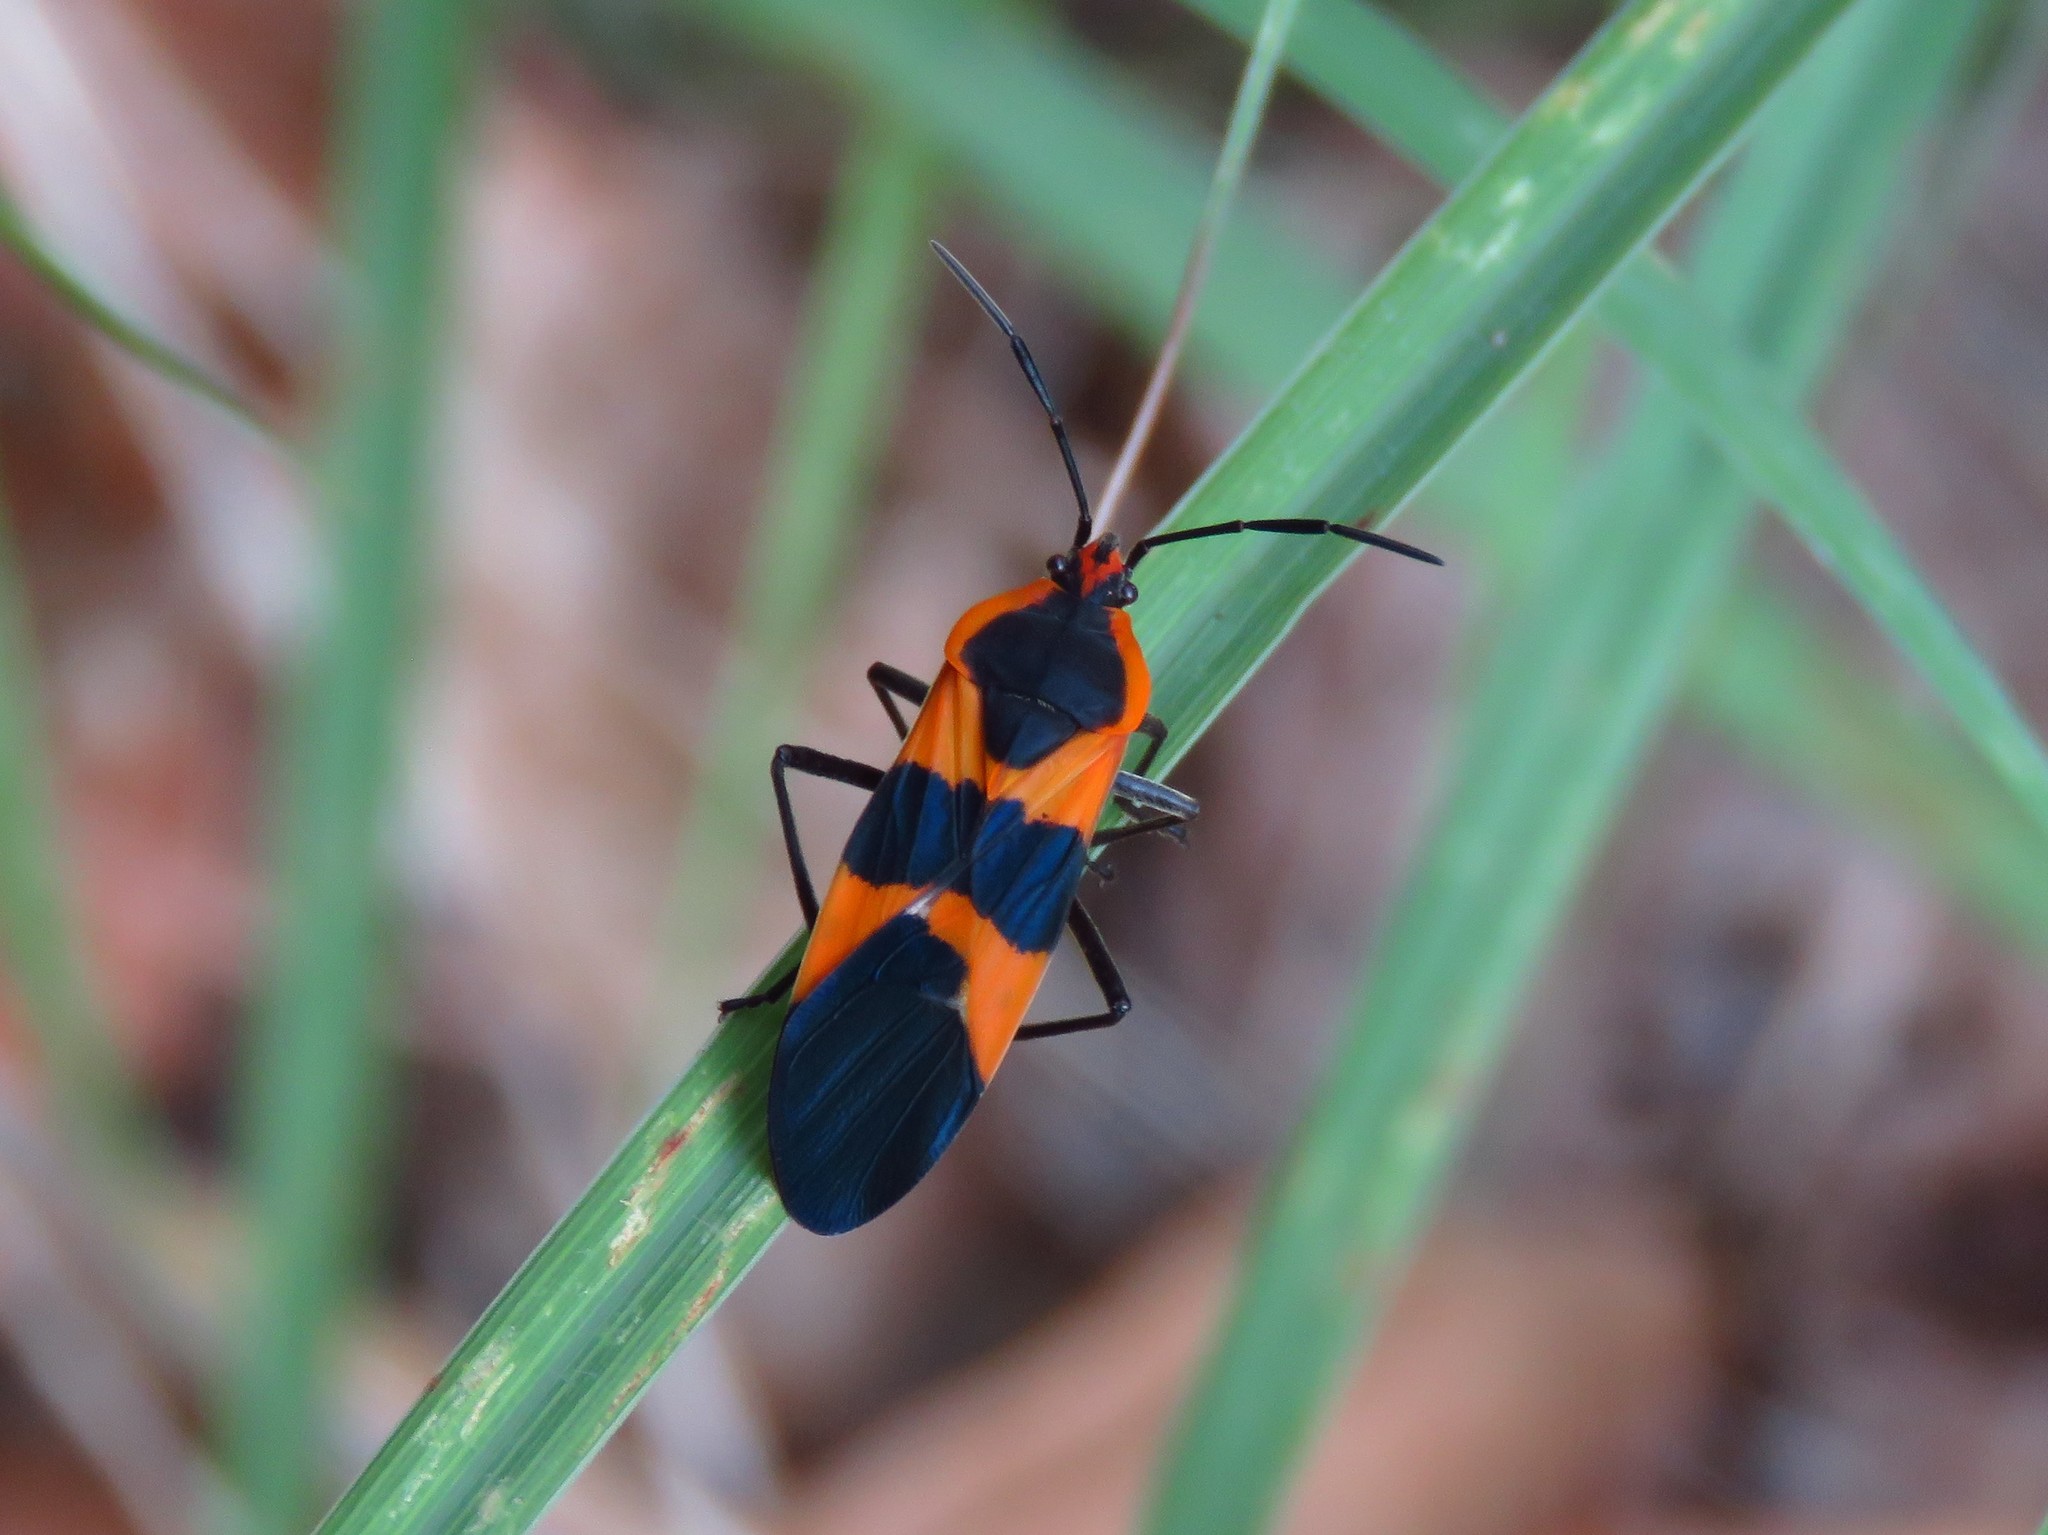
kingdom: Animalia
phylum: Arthropoda
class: Insecta
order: Hemiptera
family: Lygaeidae
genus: Oncopeltus
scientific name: Oncopeltus fasciatus
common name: Large milkweed bug
